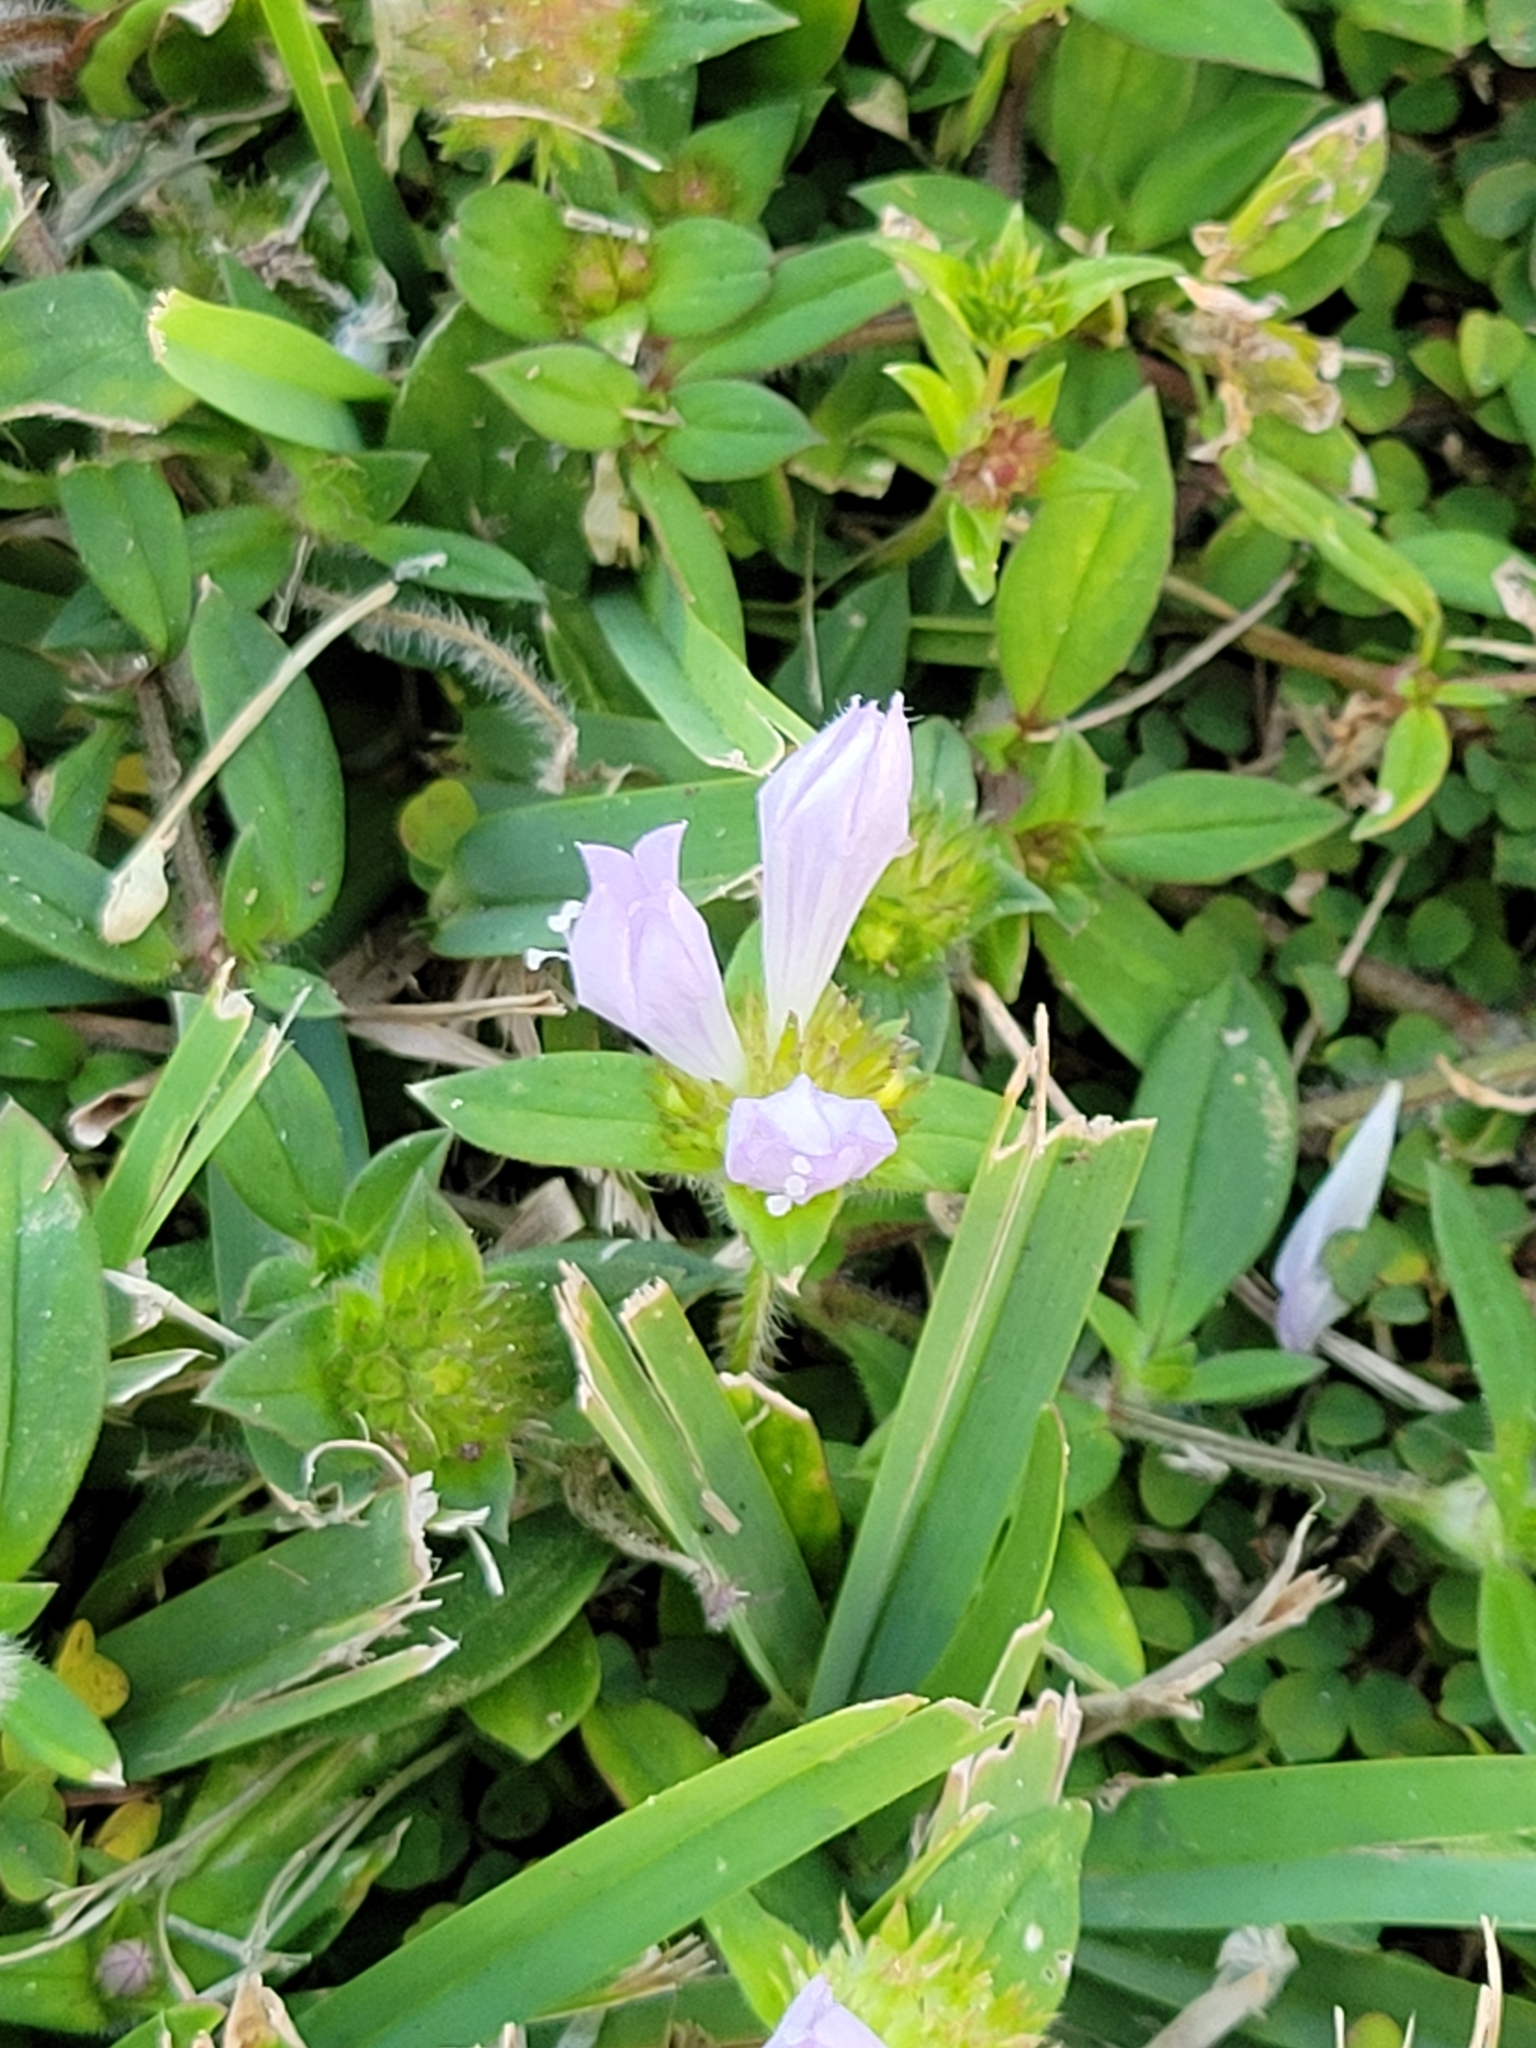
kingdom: Plantae
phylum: Tracheophyta
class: Magnoliopsida
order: Gentianales
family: Rubiaceae
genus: Richardia
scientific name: Richardia grandiflora
